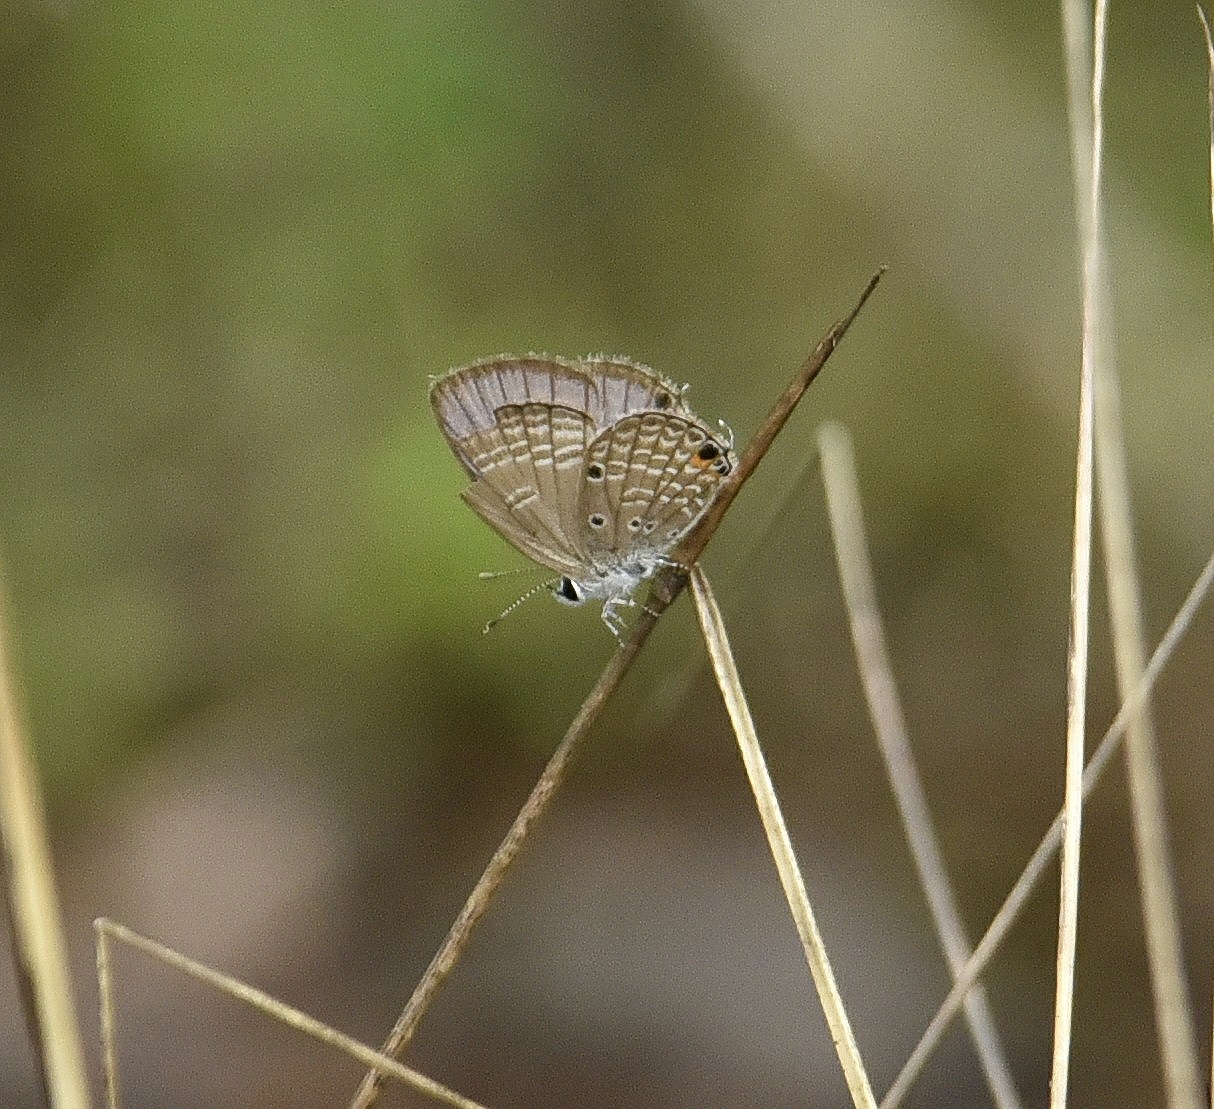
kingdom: Animalia
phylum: Arthropoda
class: Insecta
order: Lepidoptera
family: Lycaenidae
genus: Luthrodes
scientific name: Luthrodes pandava
